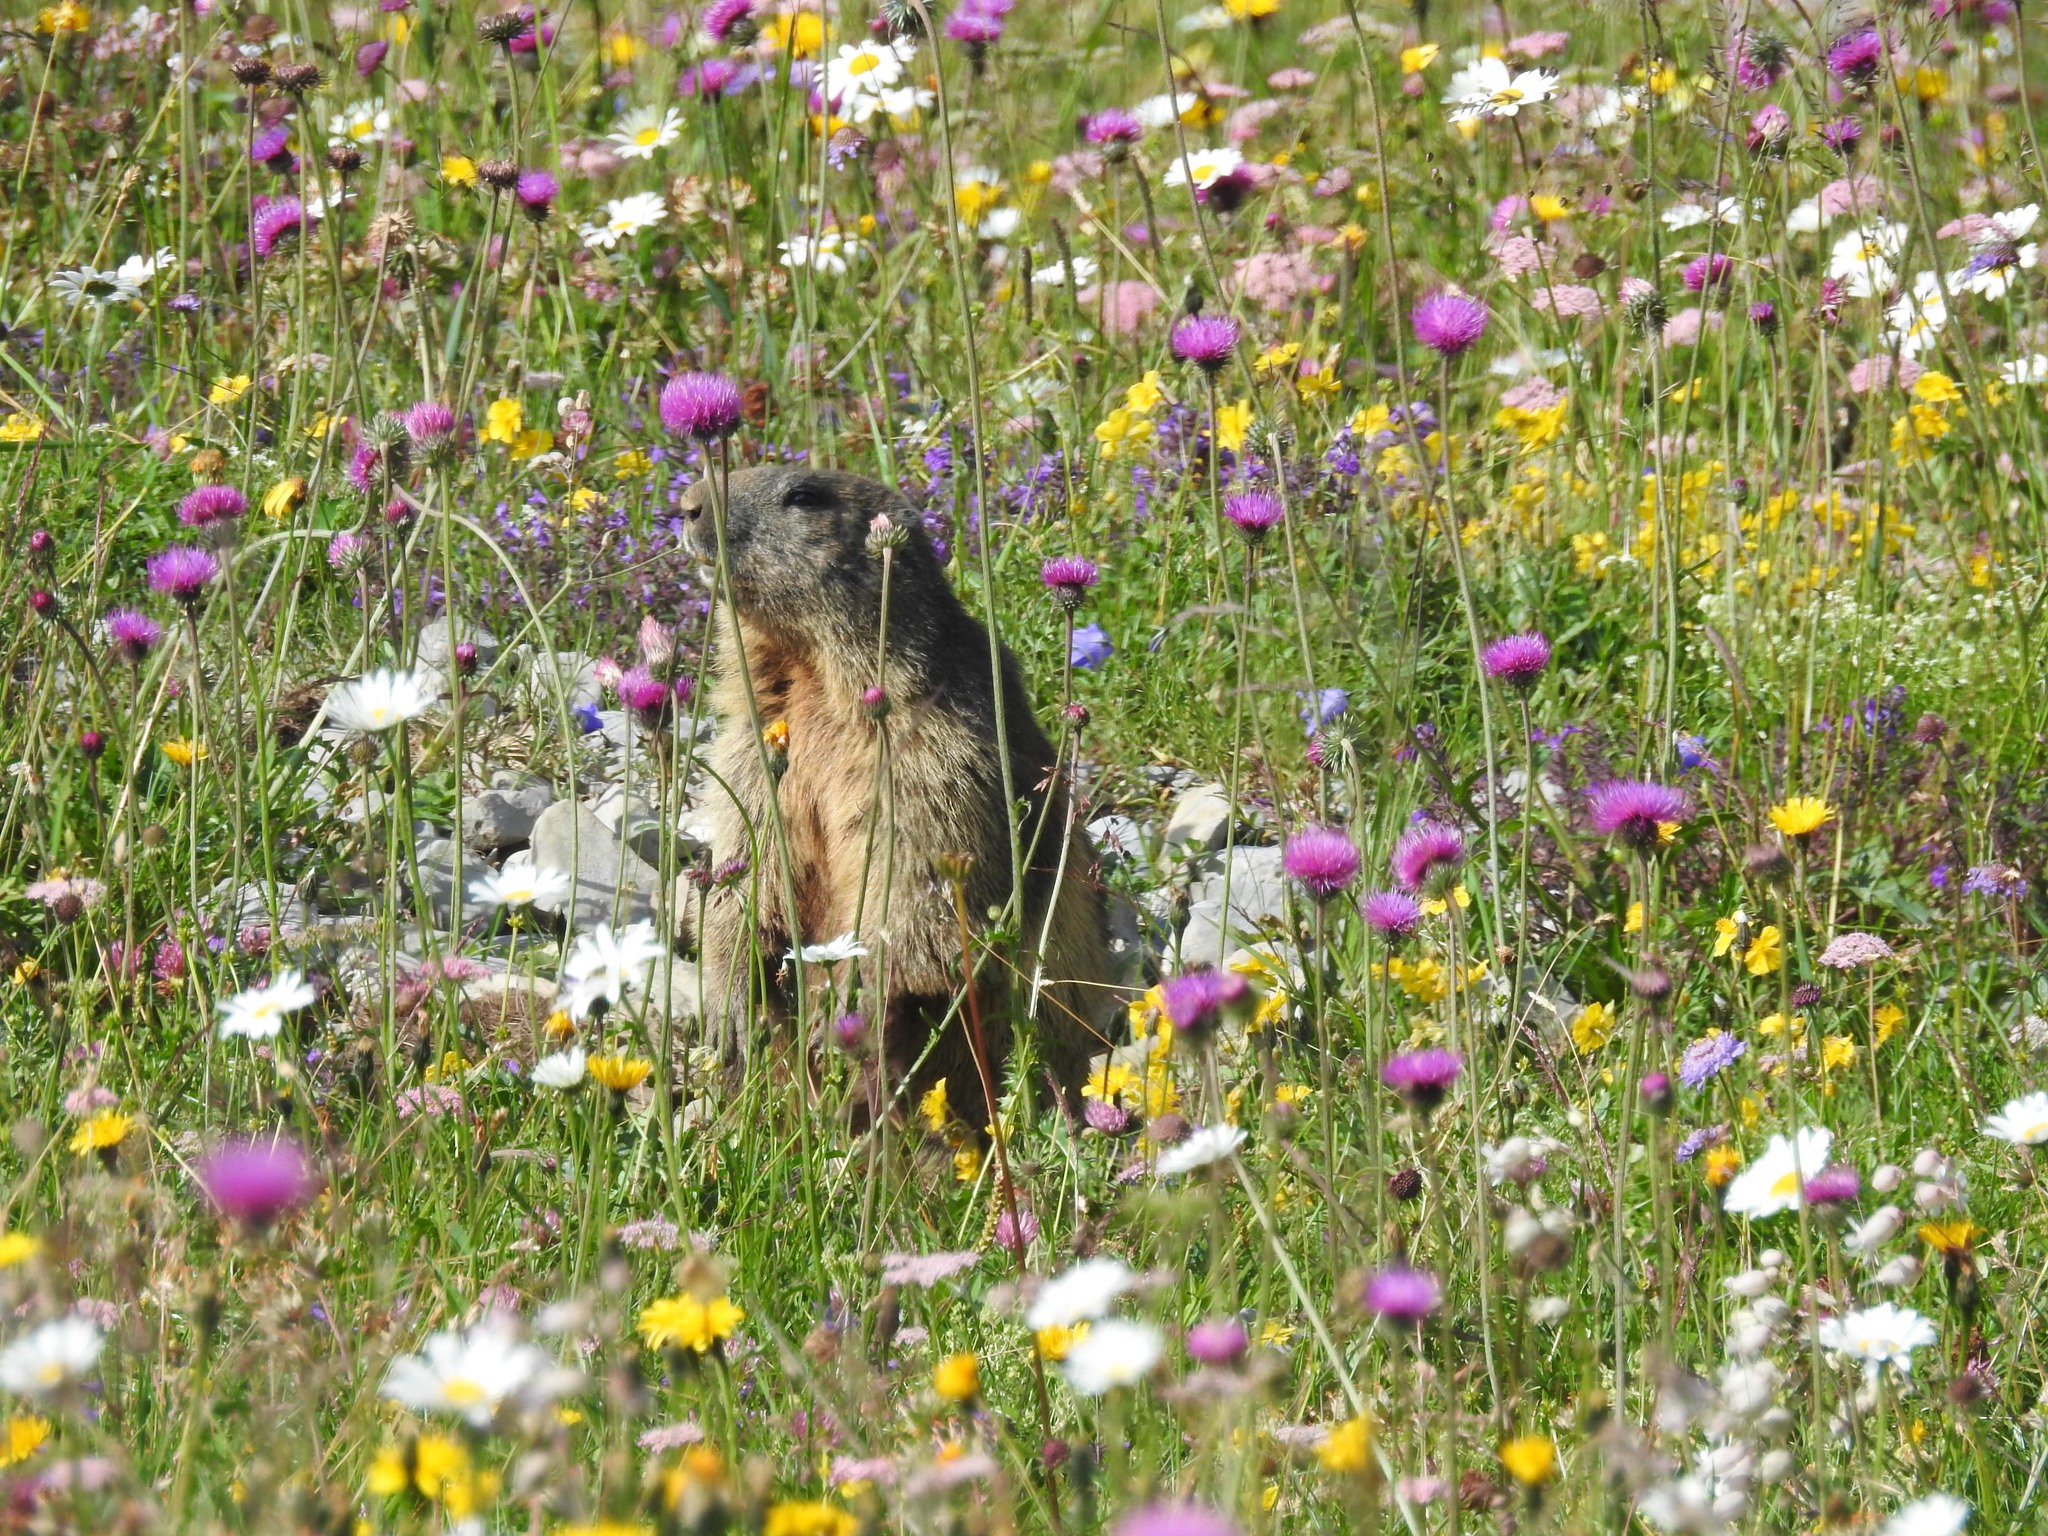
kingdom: Animalia
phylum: Chordata
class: Mammalia
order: Rodentia
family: Sciuridae
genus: Marmota
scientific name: Marmota marmota
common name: Alpine marmot
